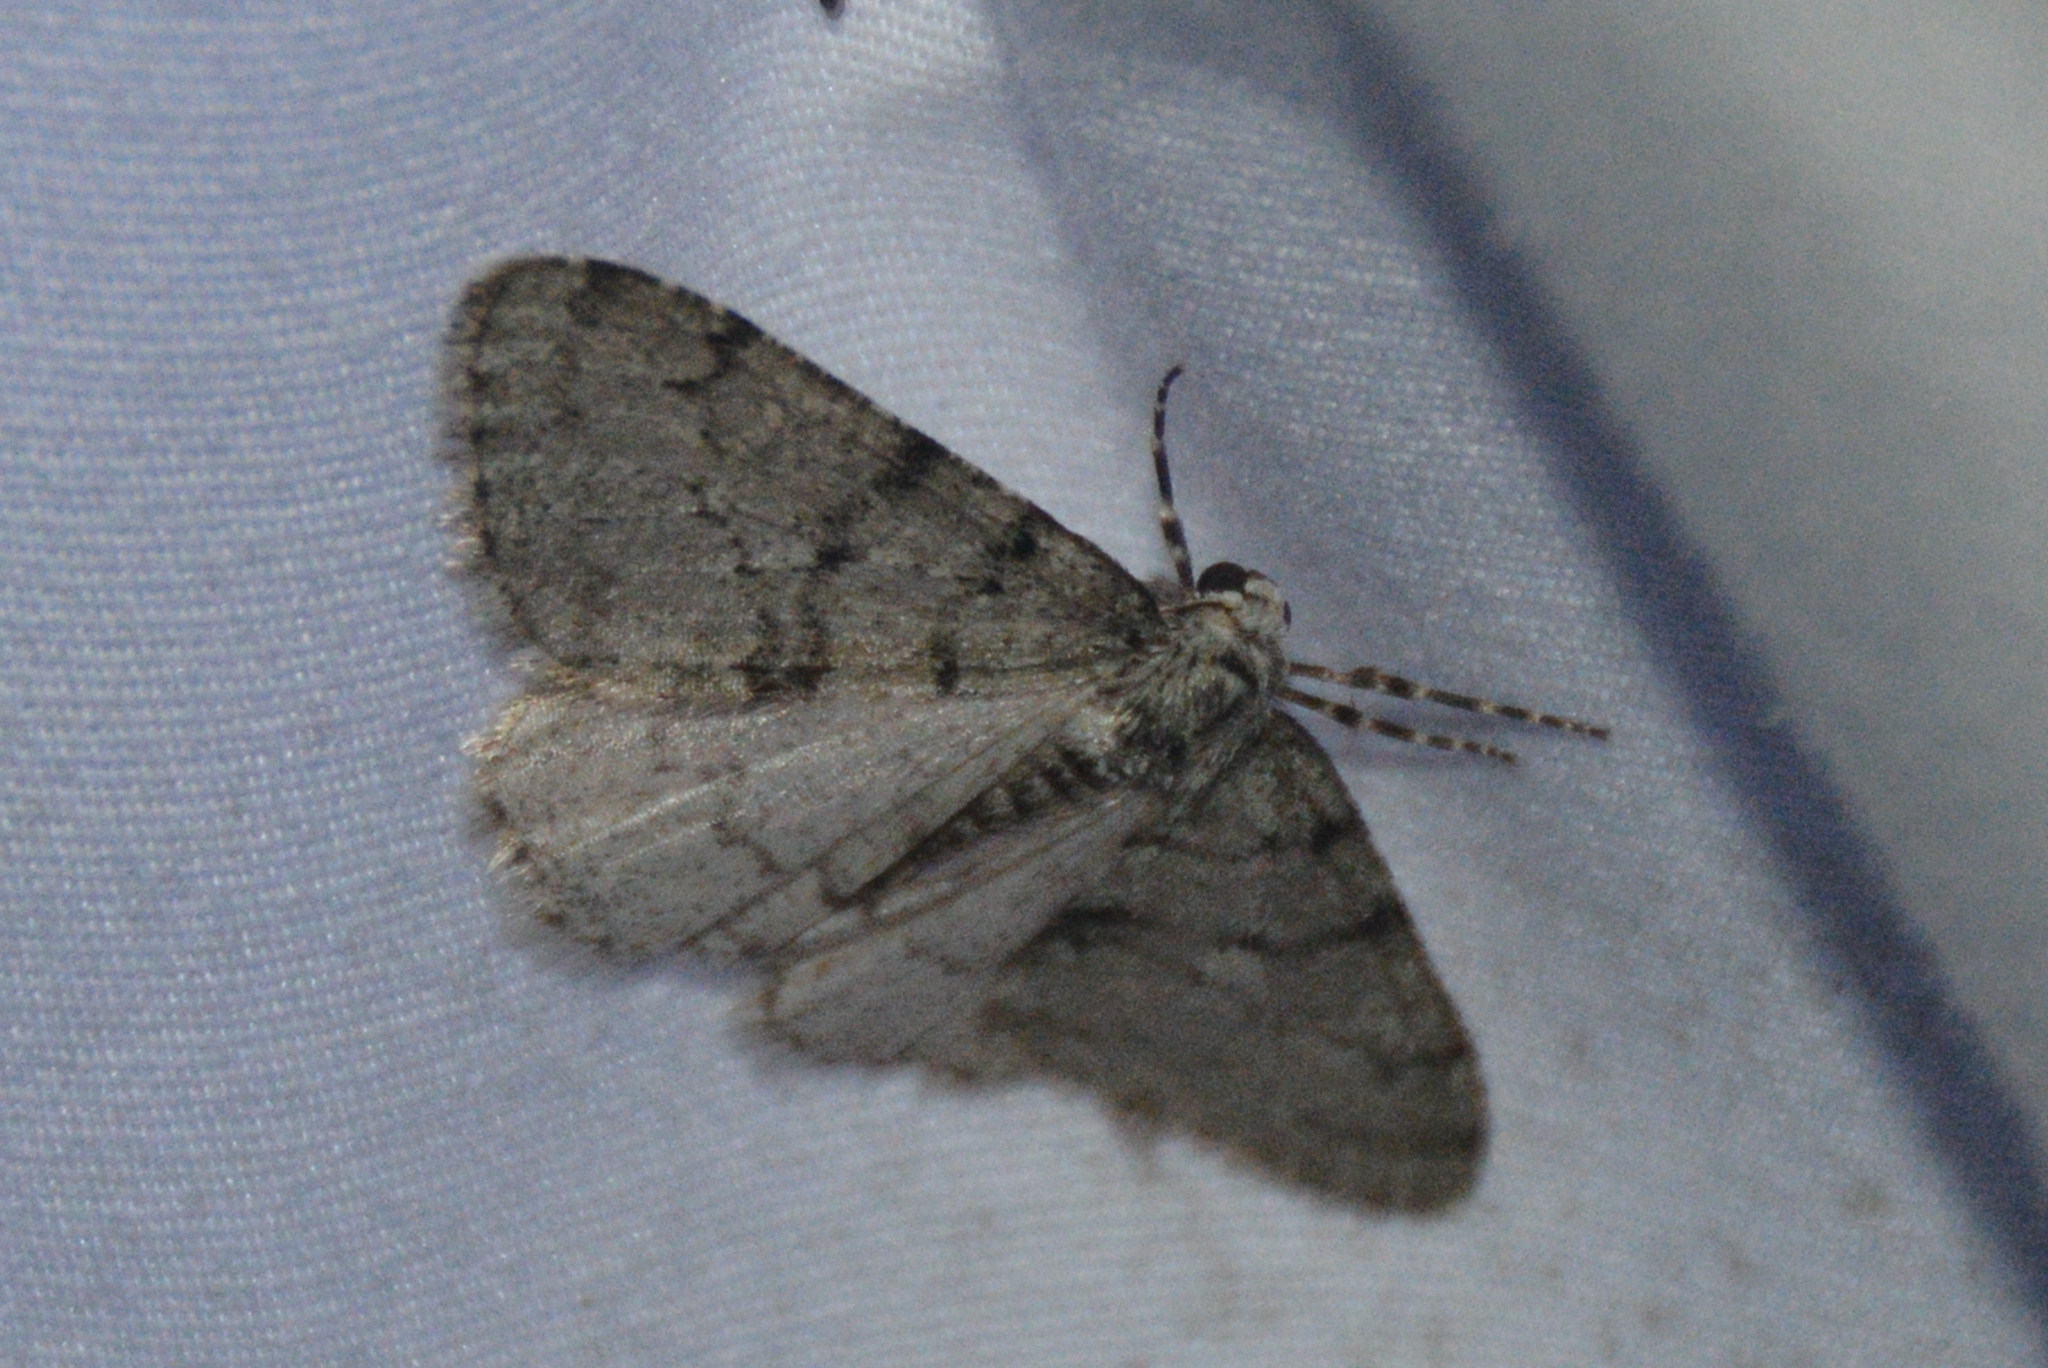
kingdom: Animalia
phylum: Arthropoda
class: Insecta
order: Lepidoptera
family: Geometridae
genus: Phigalia
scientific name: Phigalia strigataria
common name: Small phigalia
